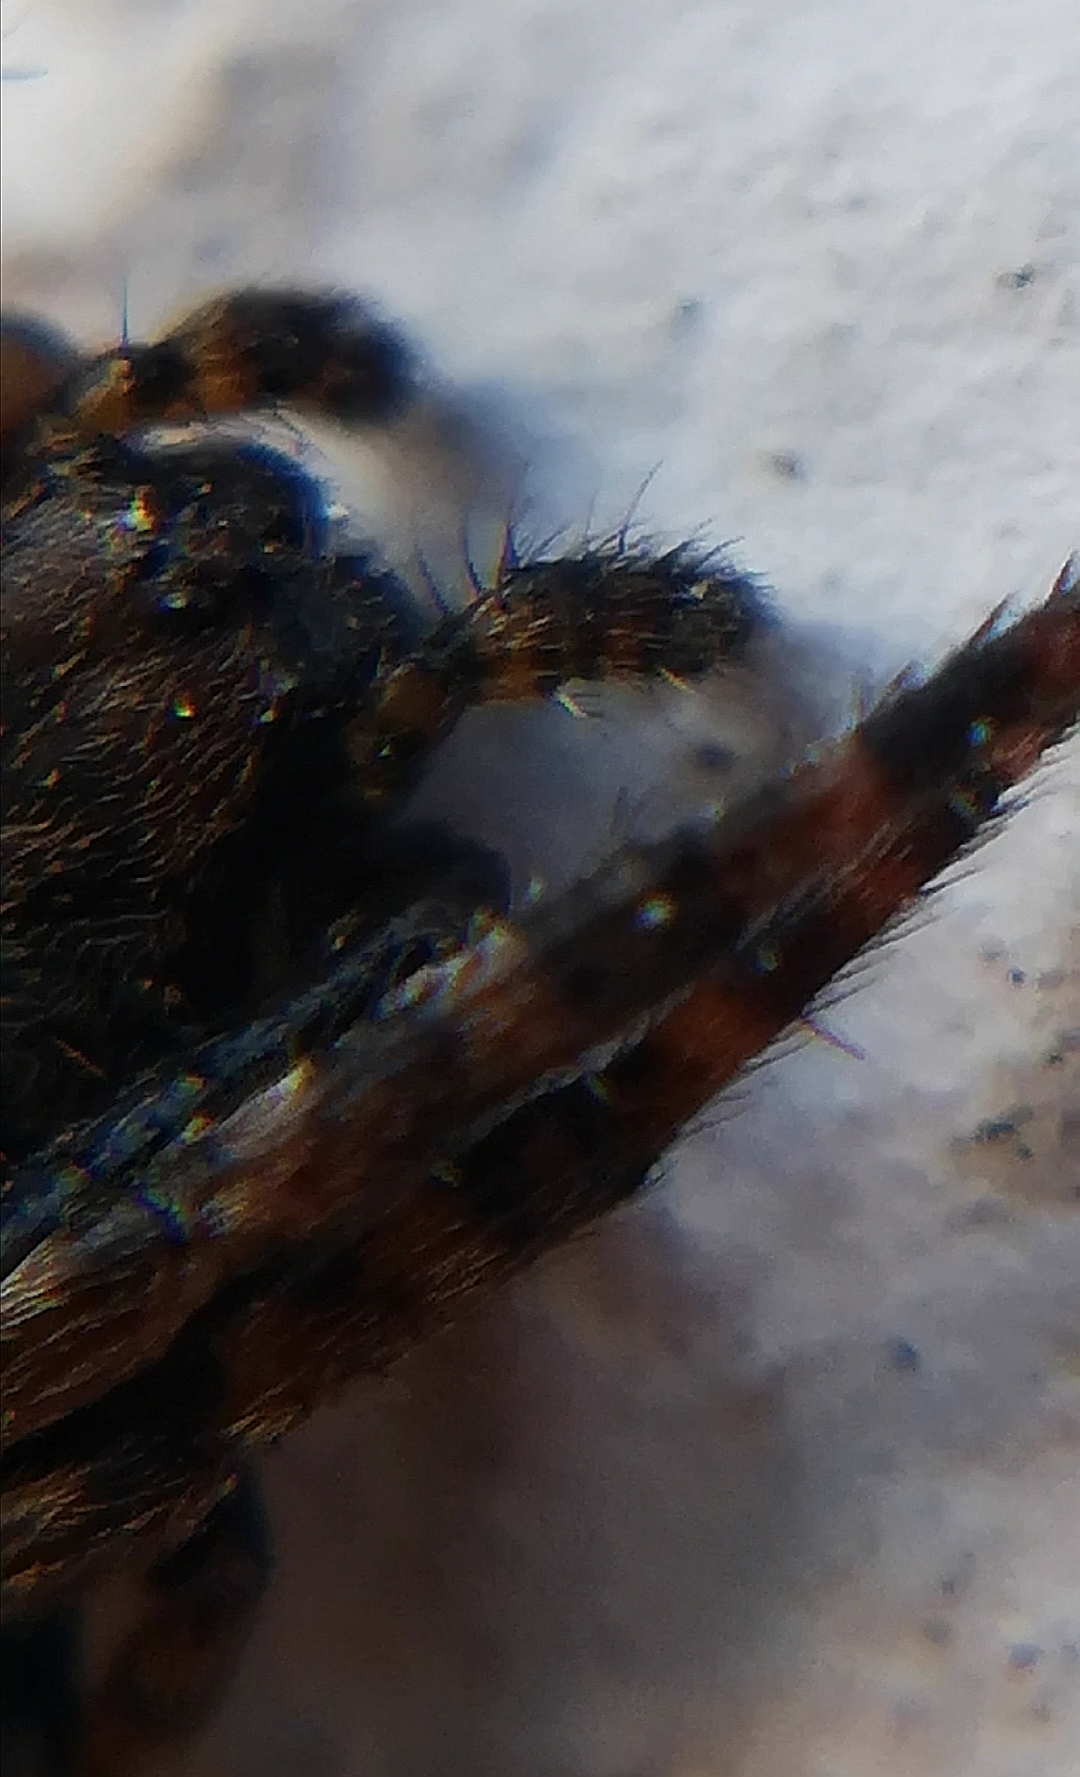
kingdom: Animalia
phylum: Arthropoda
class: Arachnida
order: Araneae
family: Araneidae
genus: Nuctenea
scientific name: Nuctenea umbratica
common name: Toad spider
